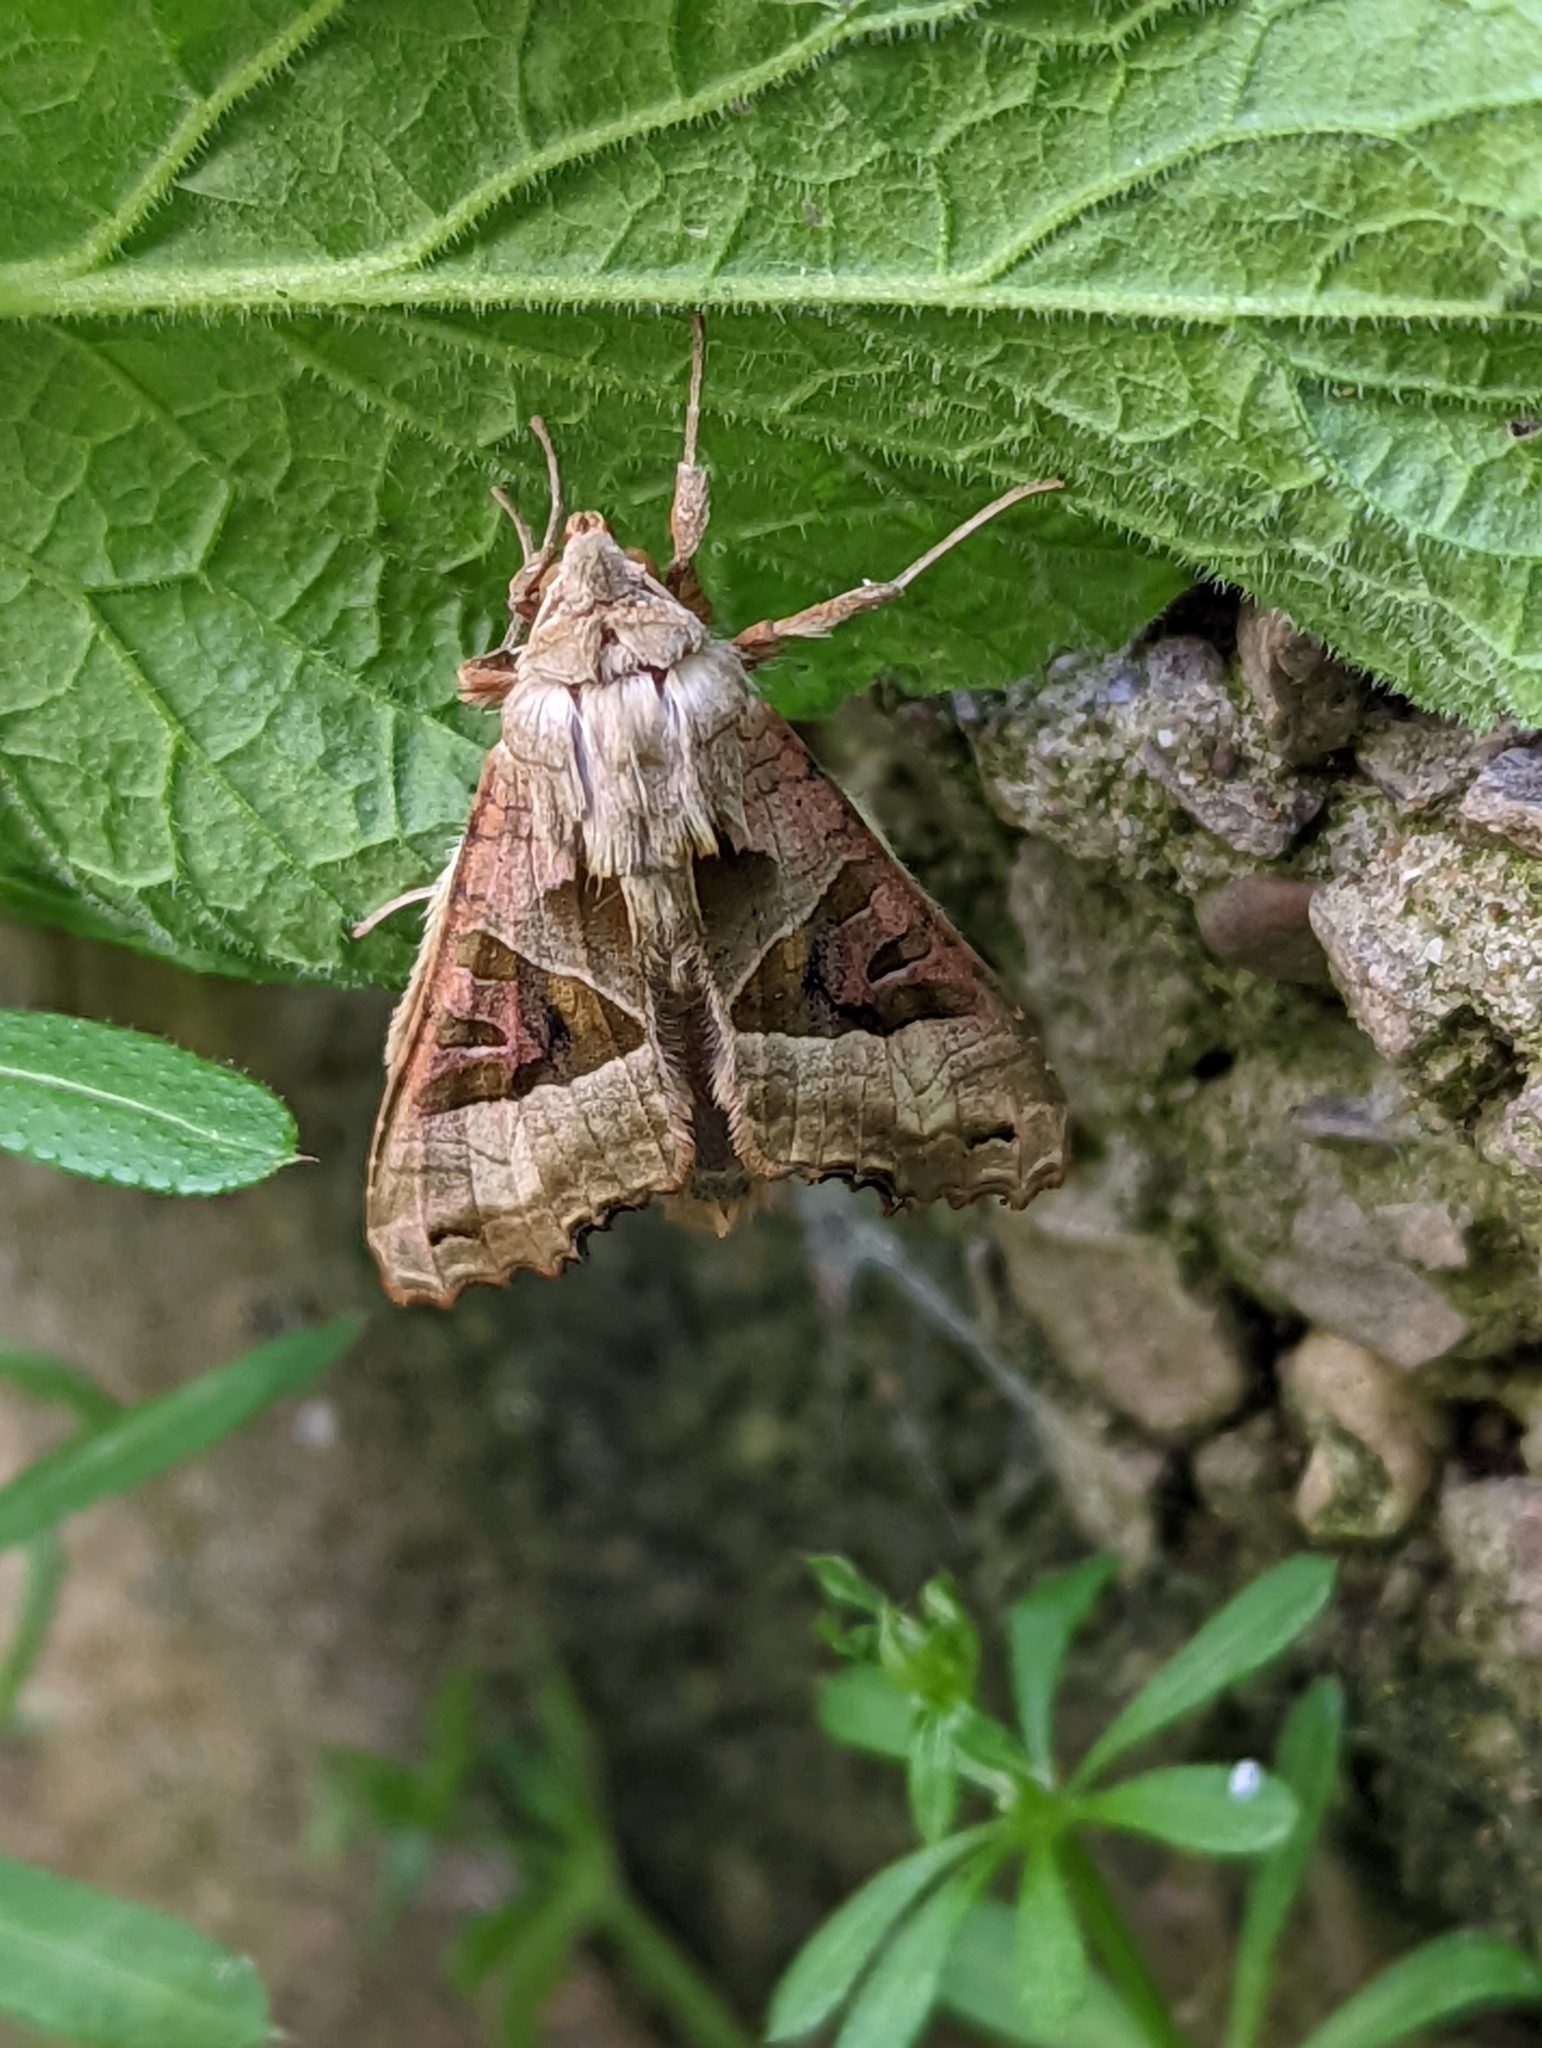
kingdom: Animalia
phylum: Arthropoda
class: Insecta
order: Lepidoptera
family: Noctuidae
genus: Phlogophora
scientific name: Phlogophora meticulosa
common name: Angle shades
